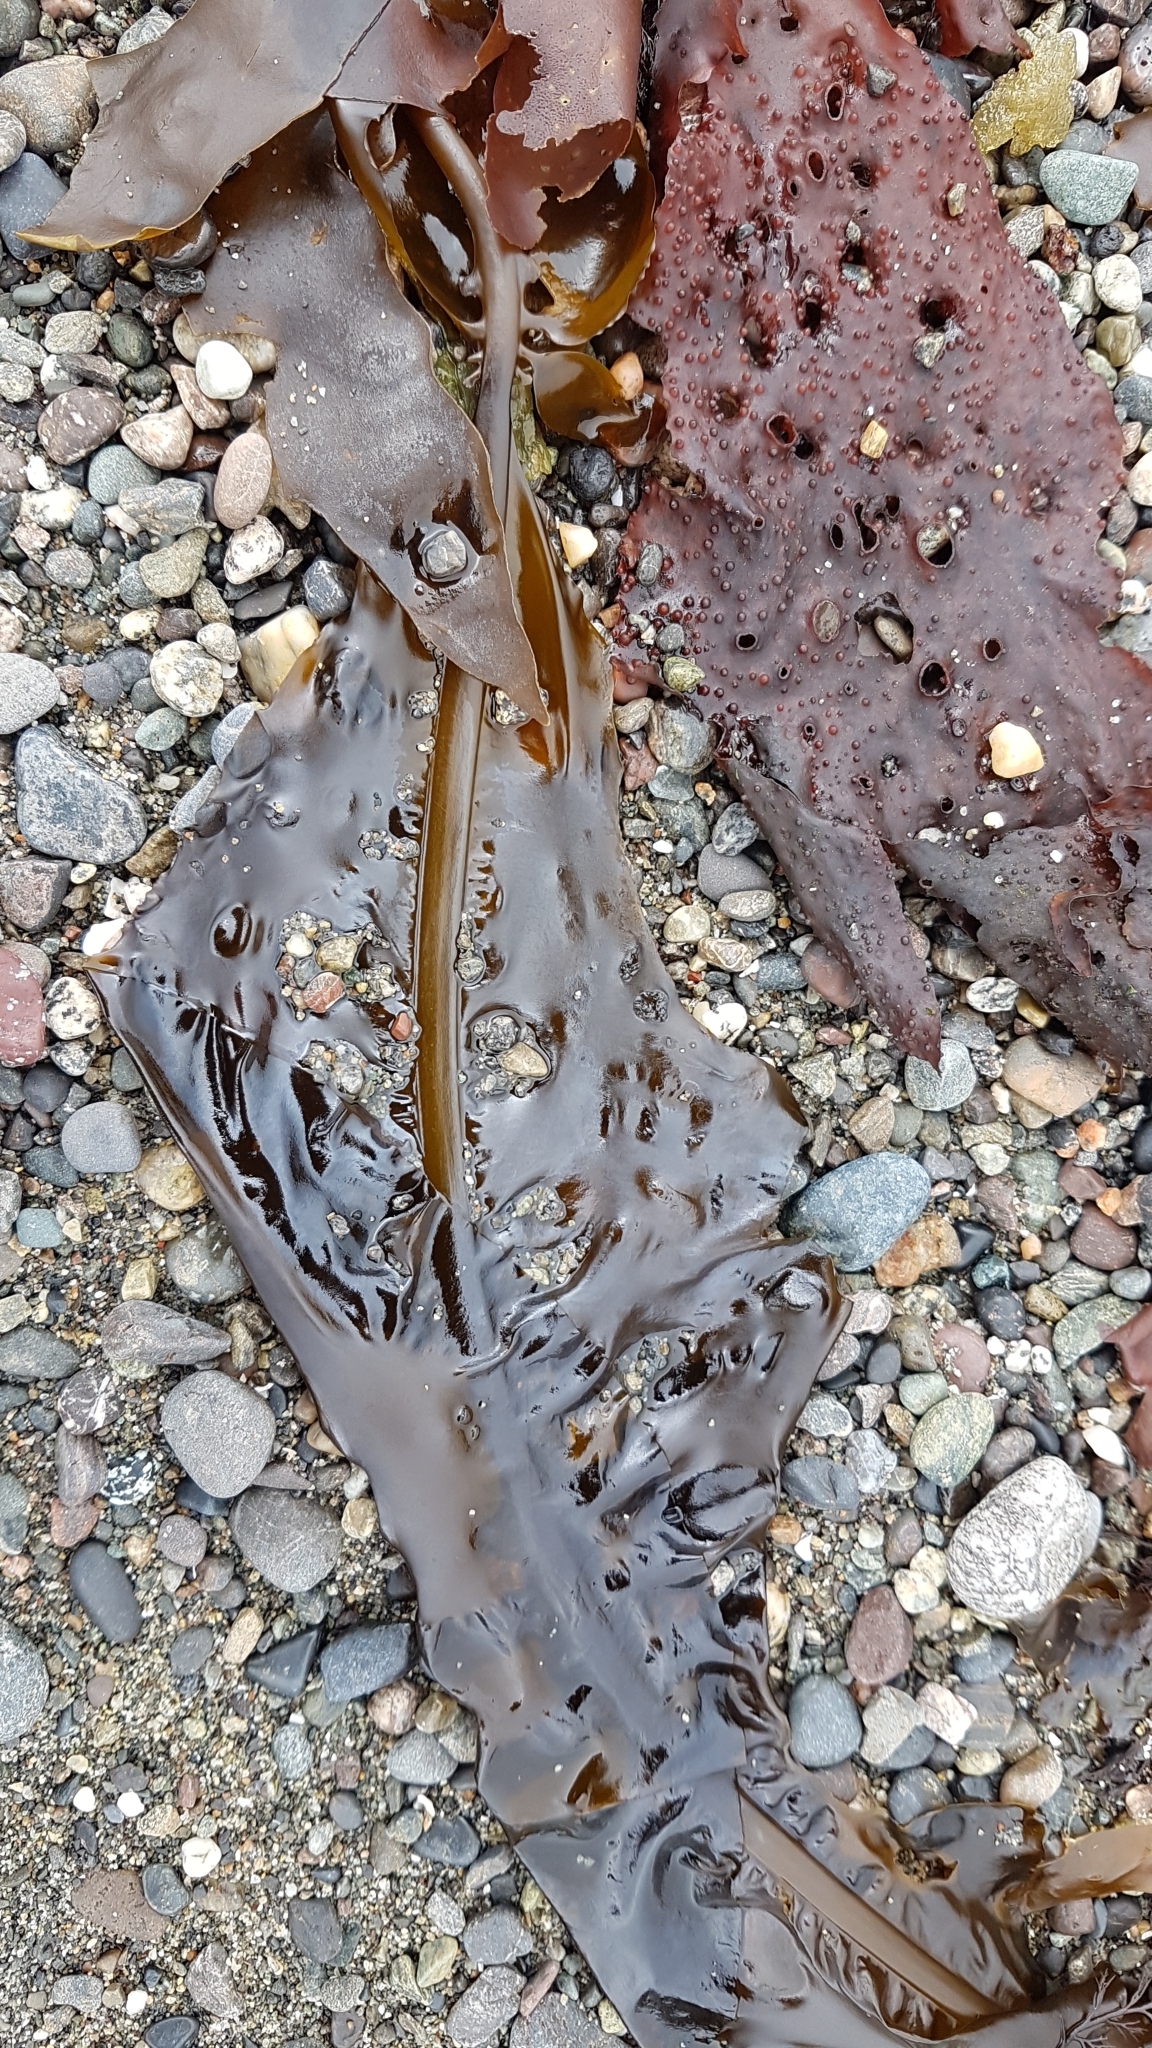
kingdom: Chromista
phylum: Ochrophyta
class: Phaeophyceae
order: Laminariales
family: Alariaceae
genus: Alaria
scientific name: Alaria marginata
